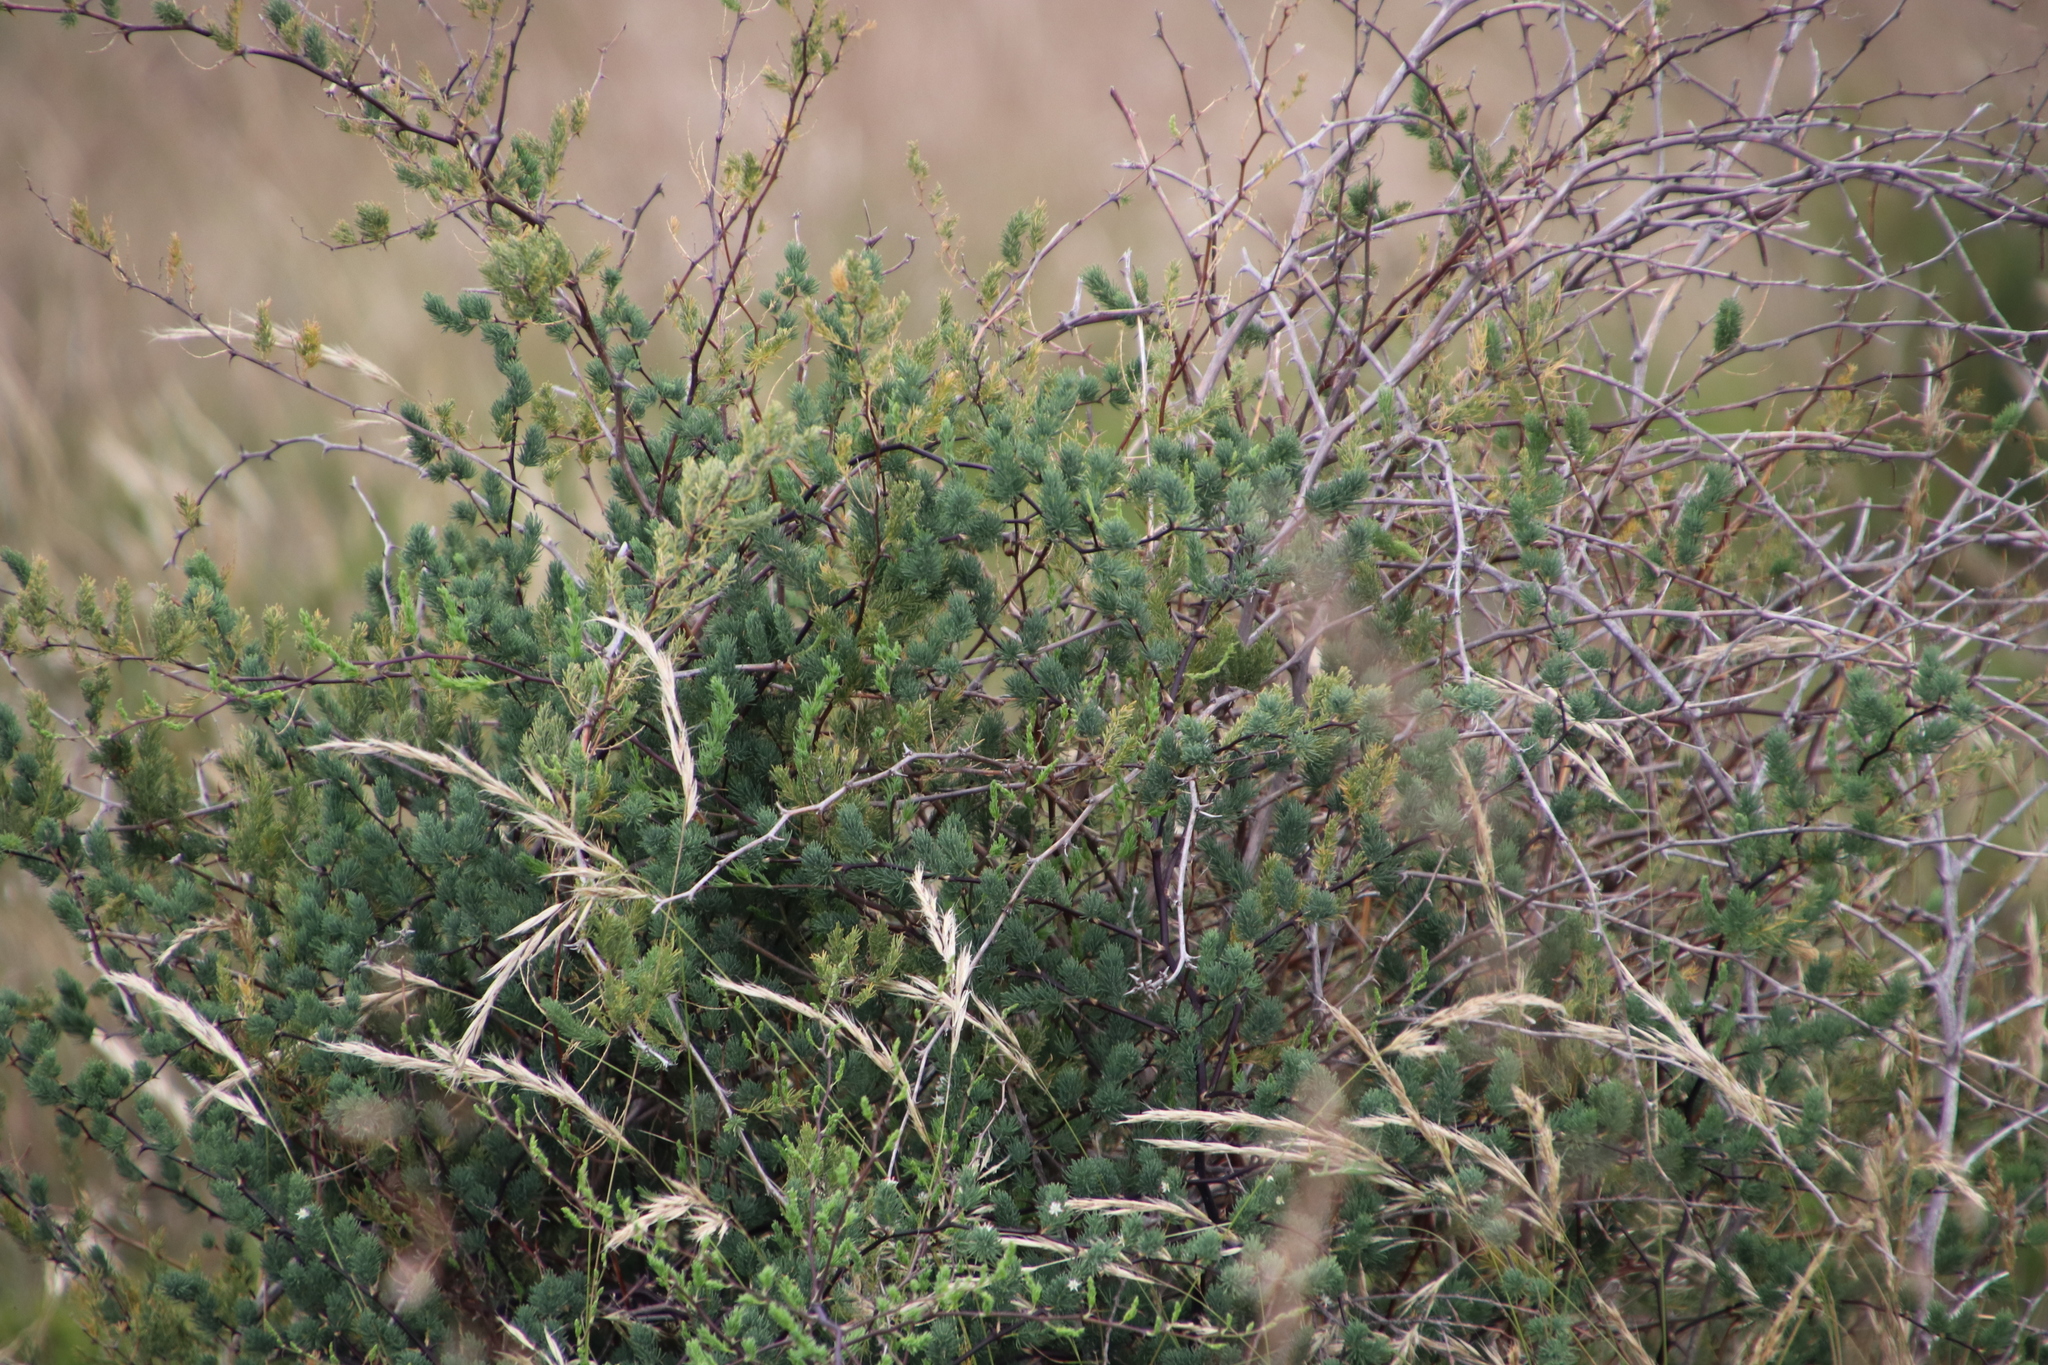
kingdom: Plantae
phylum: Tracheophyta
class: Liliopsida
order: Asparagales
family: Asparagaceae
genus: Asparagus
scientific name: Asparagus rubicundus
